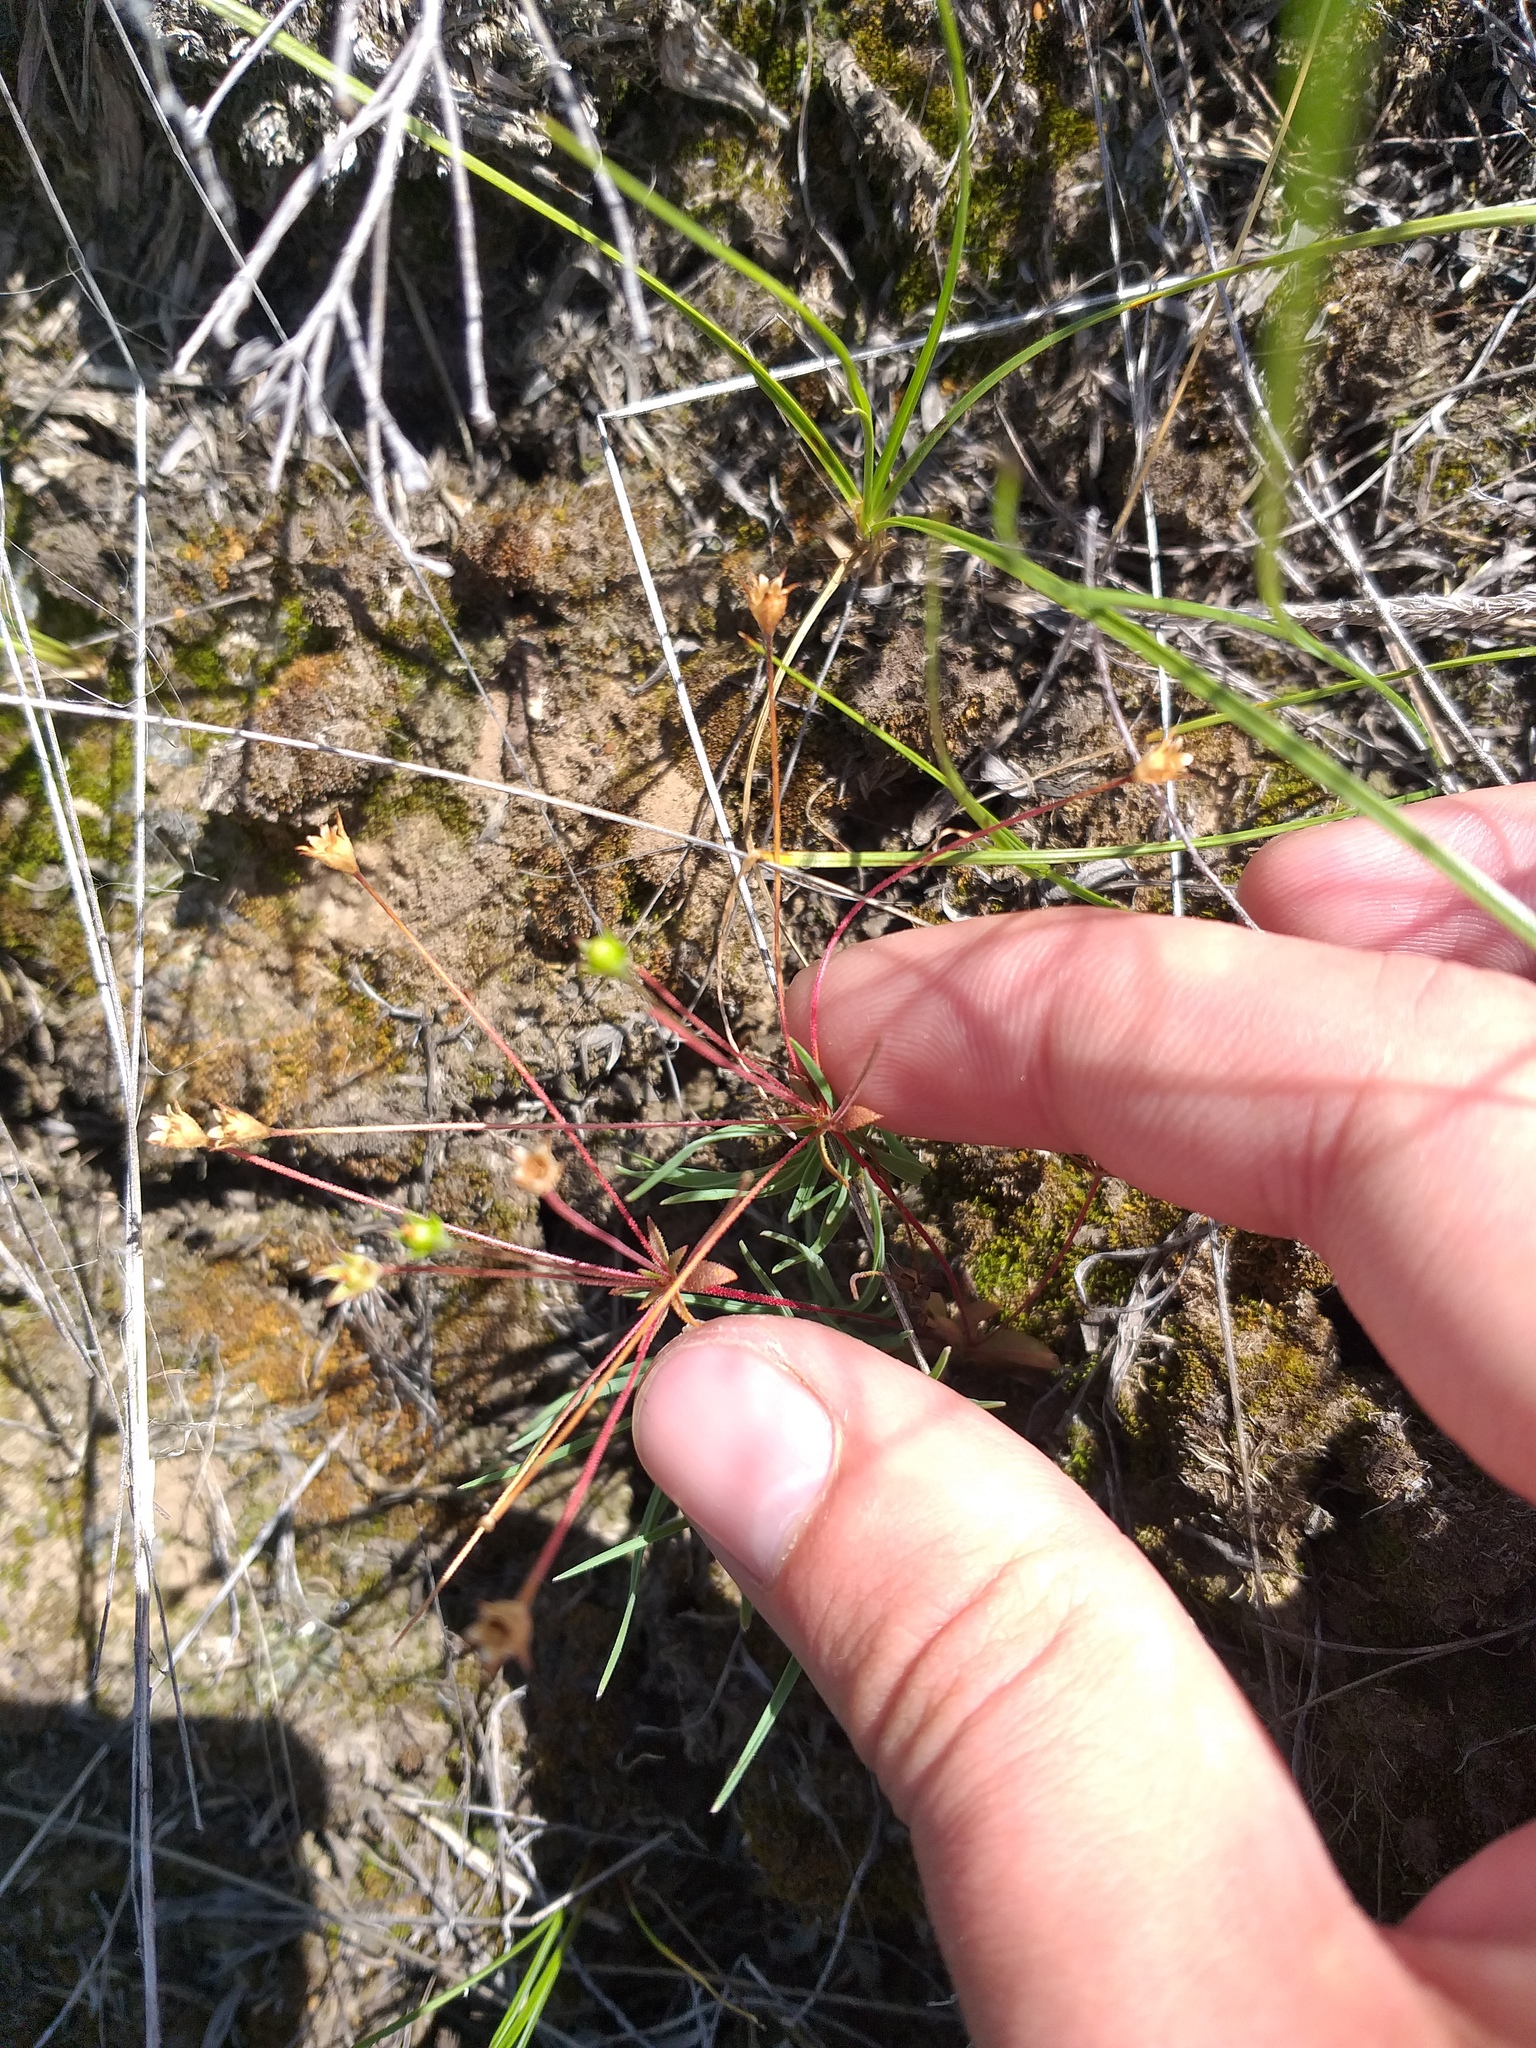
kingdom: Plantae
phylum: Tracheophyta
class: Magnoliopsida
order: Ericales
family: Primulaceae
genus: Androsace
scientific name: Androsace elongata
